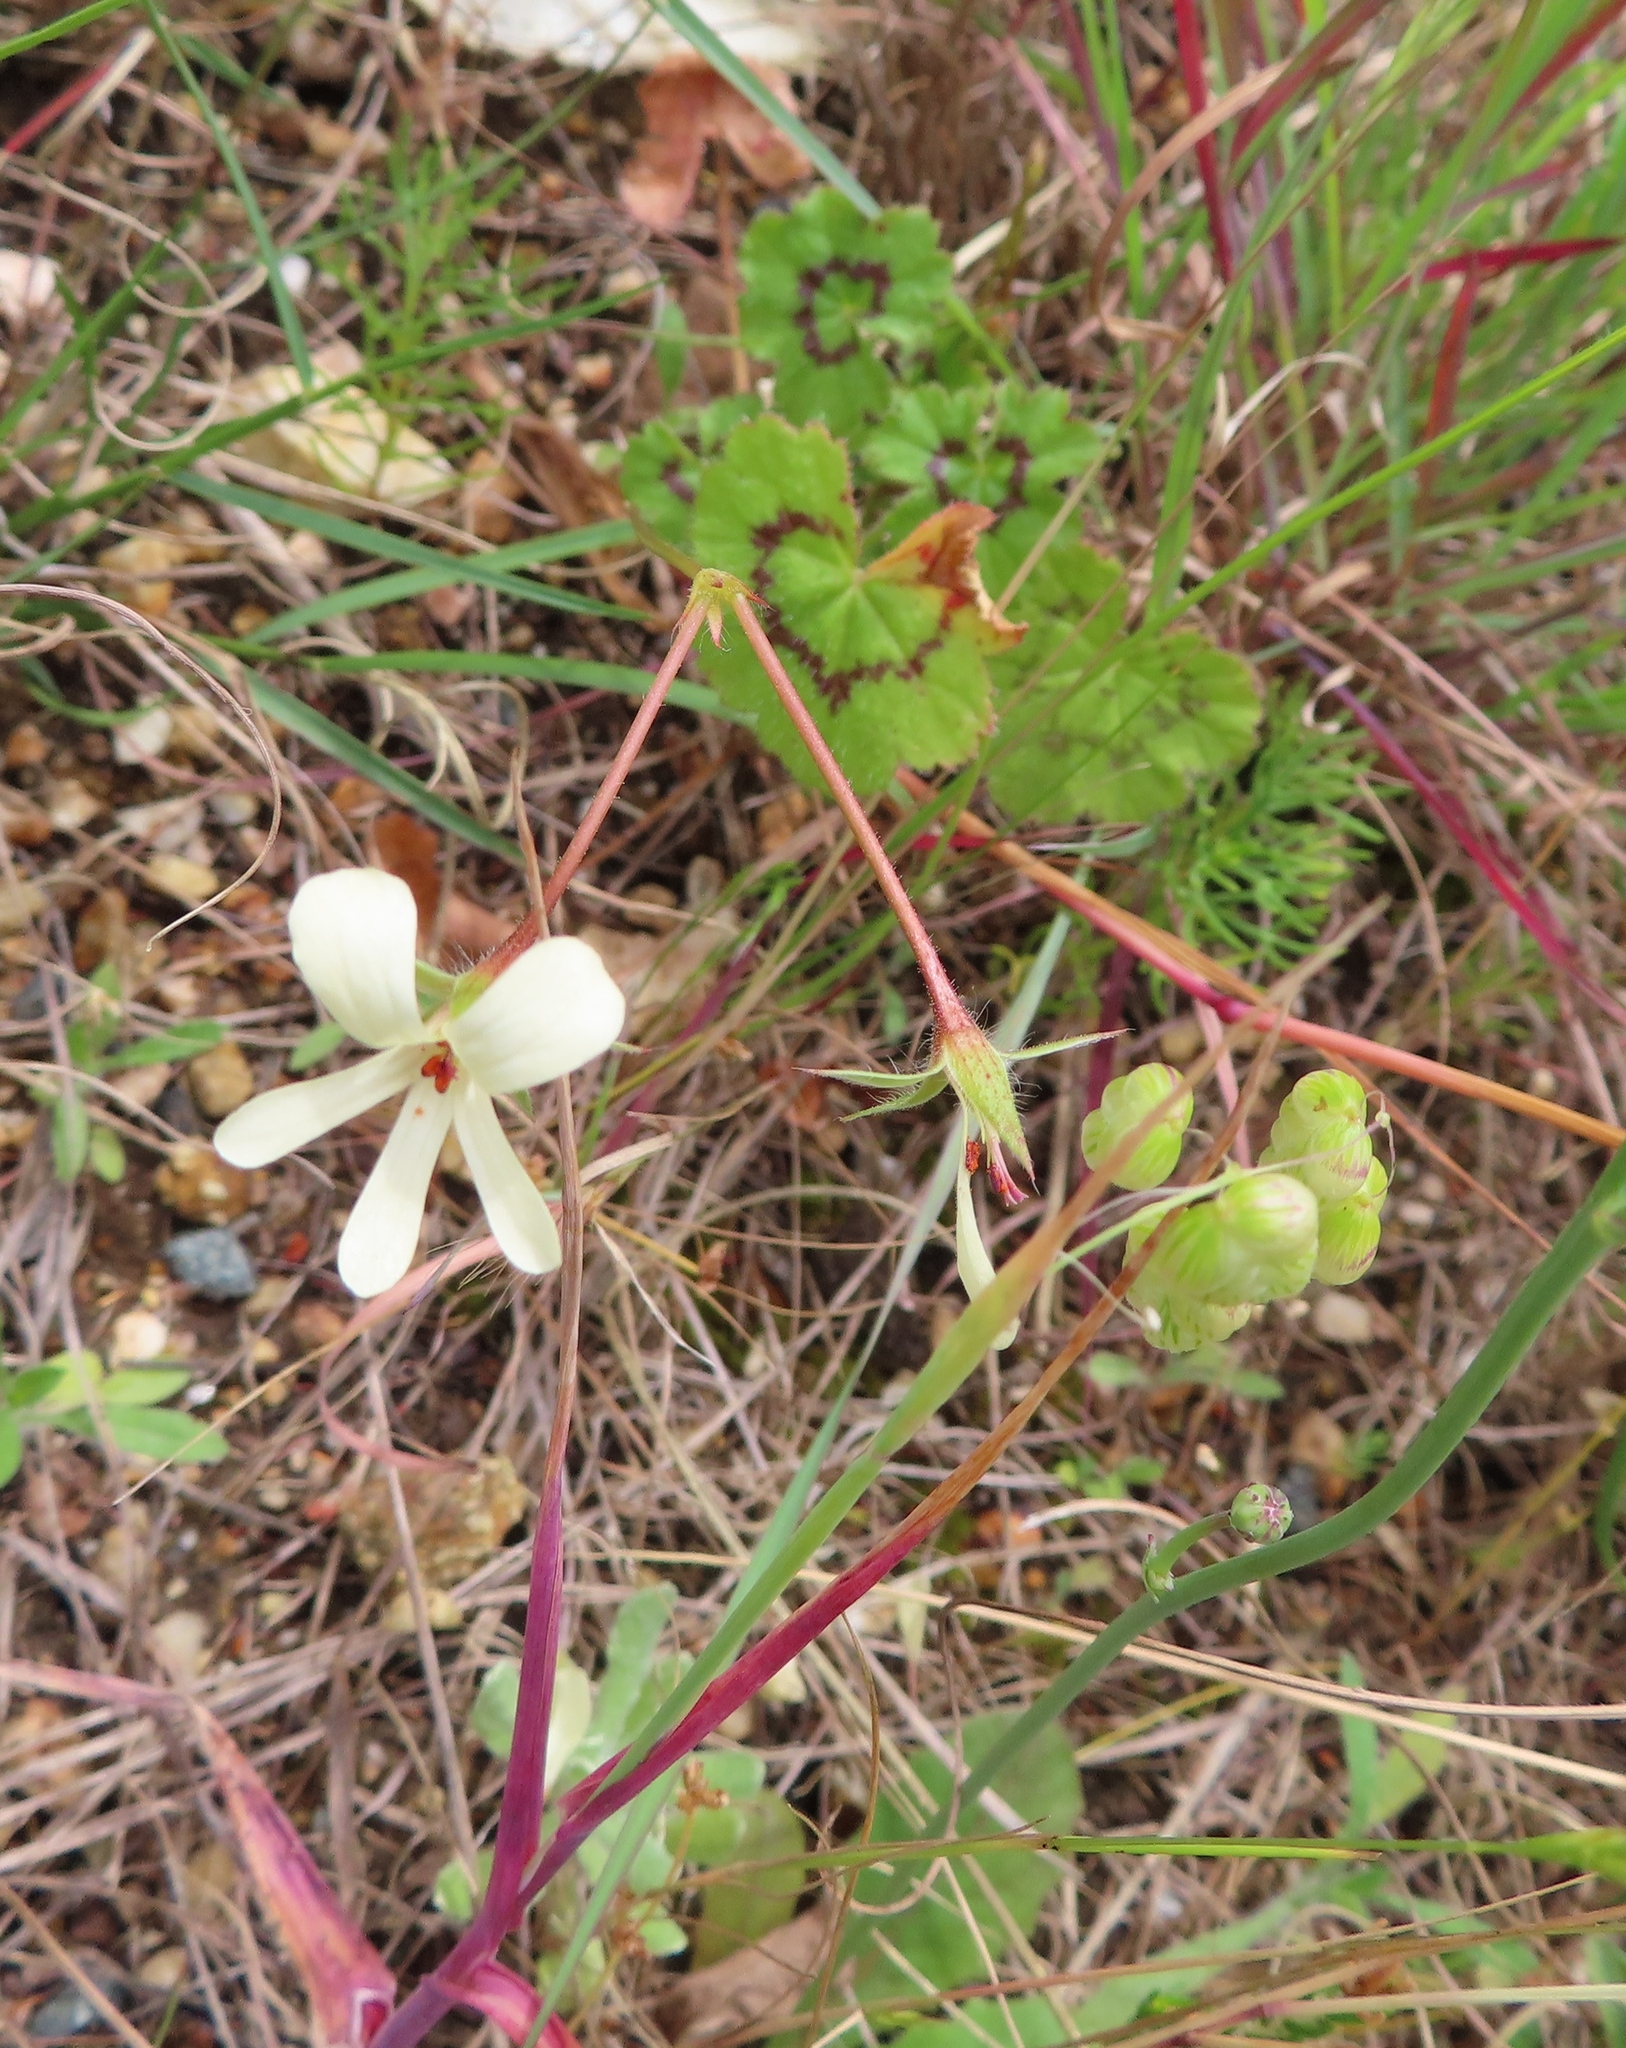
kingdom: Plantae
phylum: Tracheophyta
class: Magnoliopsida
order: Geraniales
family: Geraniaceae
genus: Pelargonium
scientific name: Pelargonium elongatum
